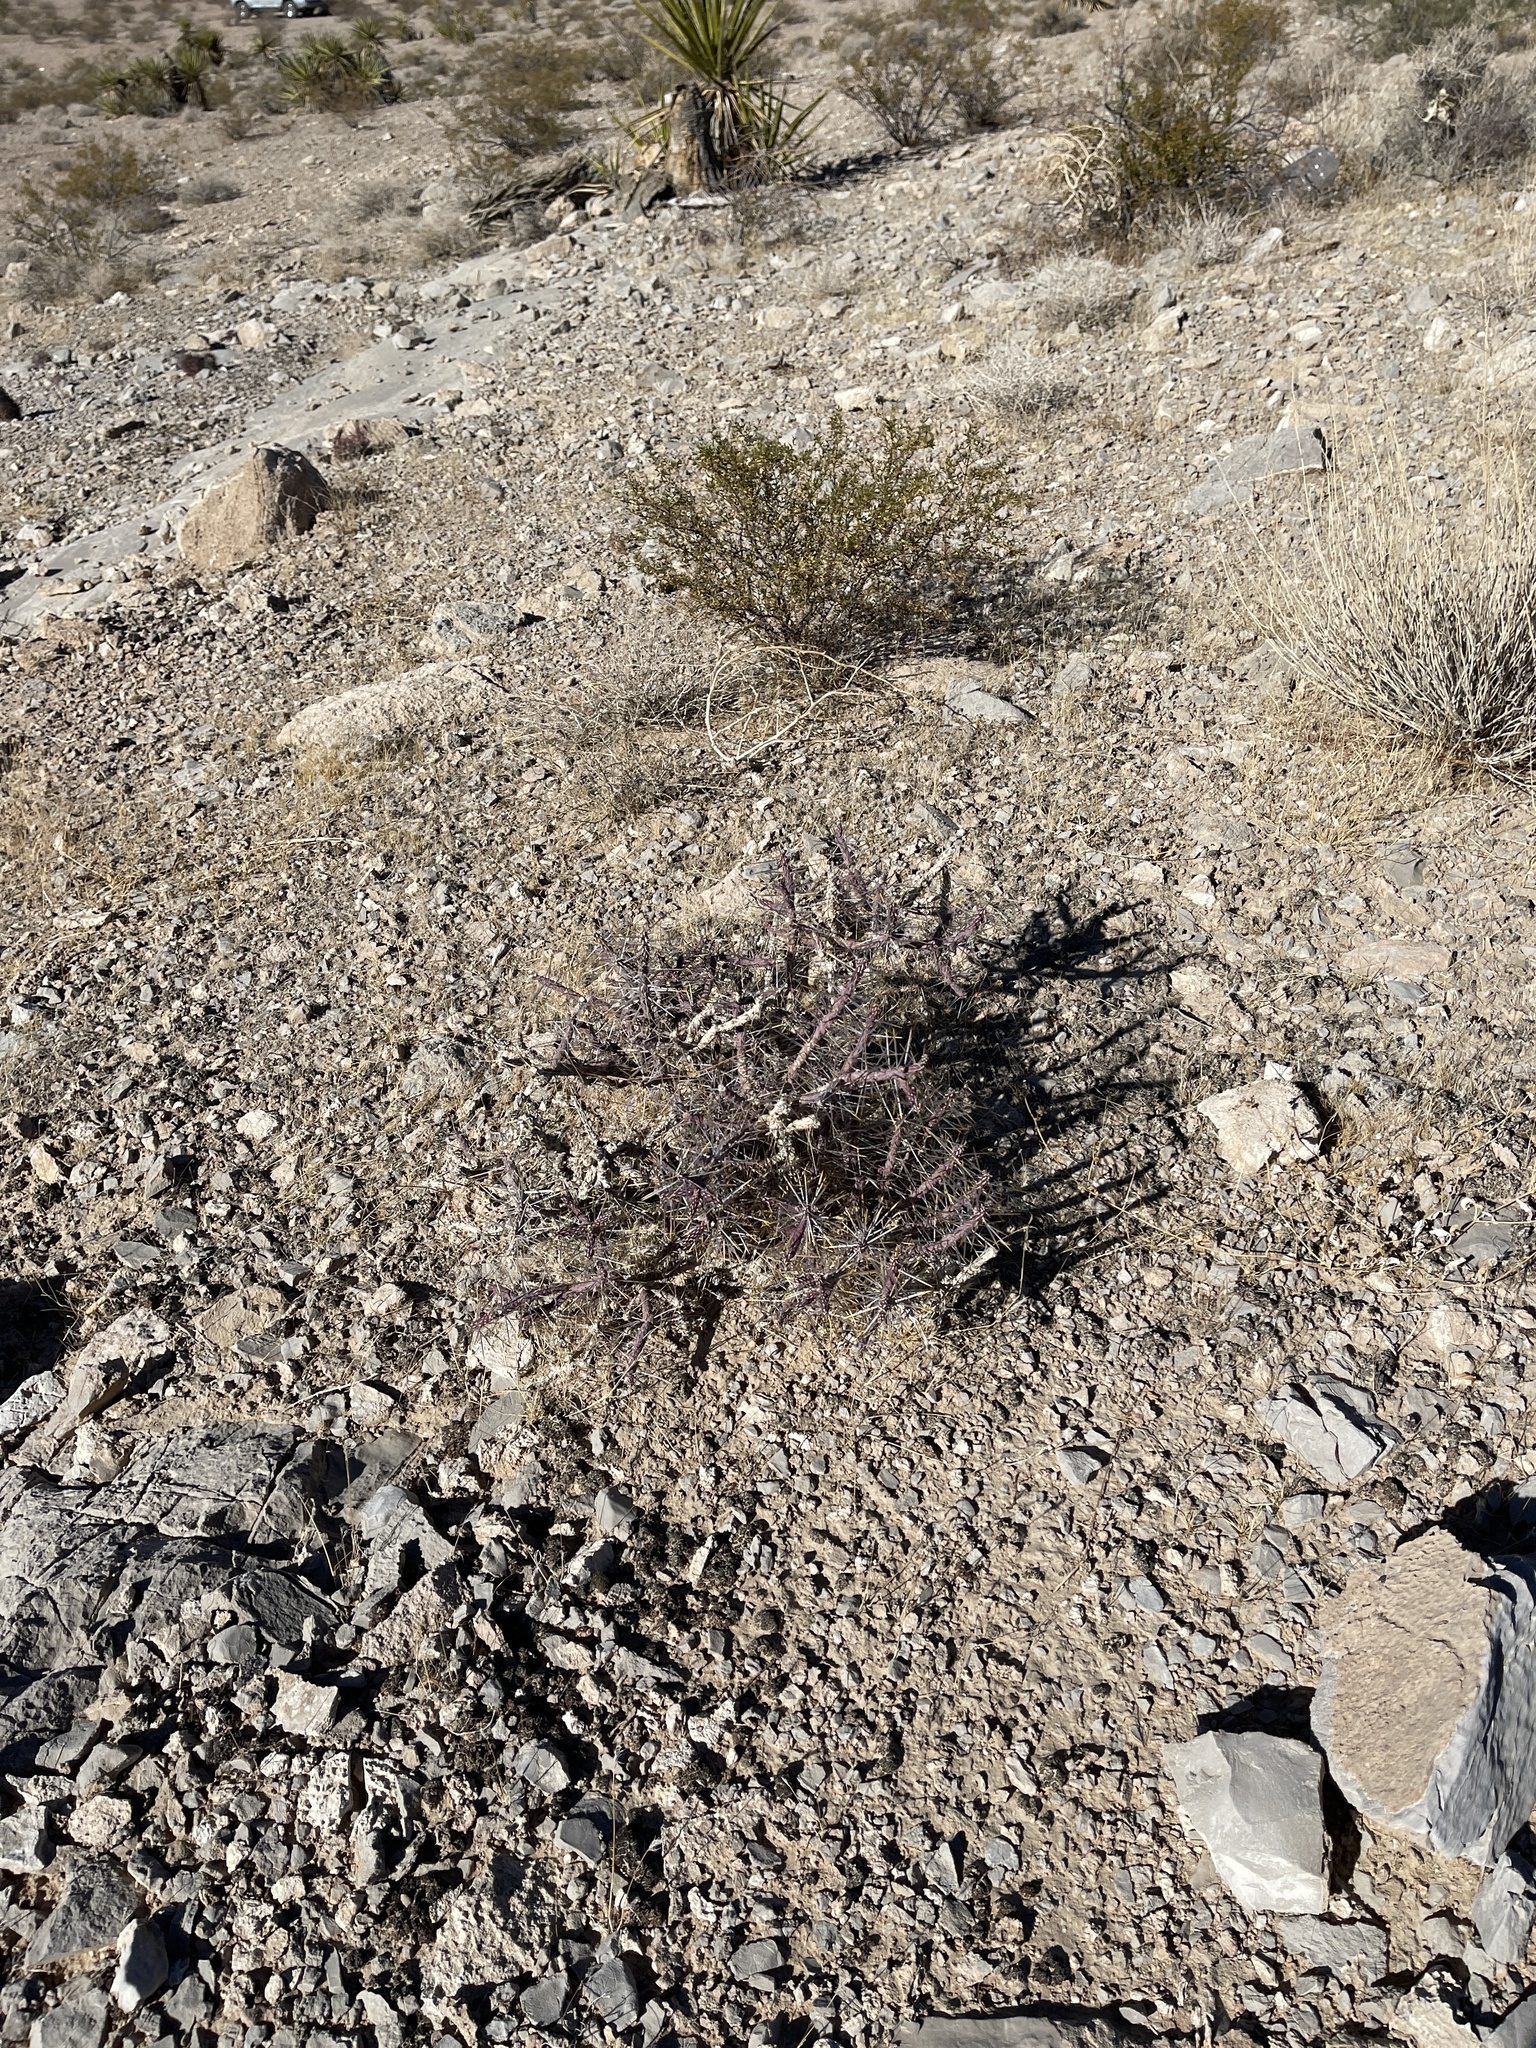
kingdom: Plantae
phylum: Tracheophyta
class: Magnoliopsida
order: Caryophyllales
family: Cactaceae
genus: Cylindropuntia
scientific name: Cylindropuntia ramosissima
